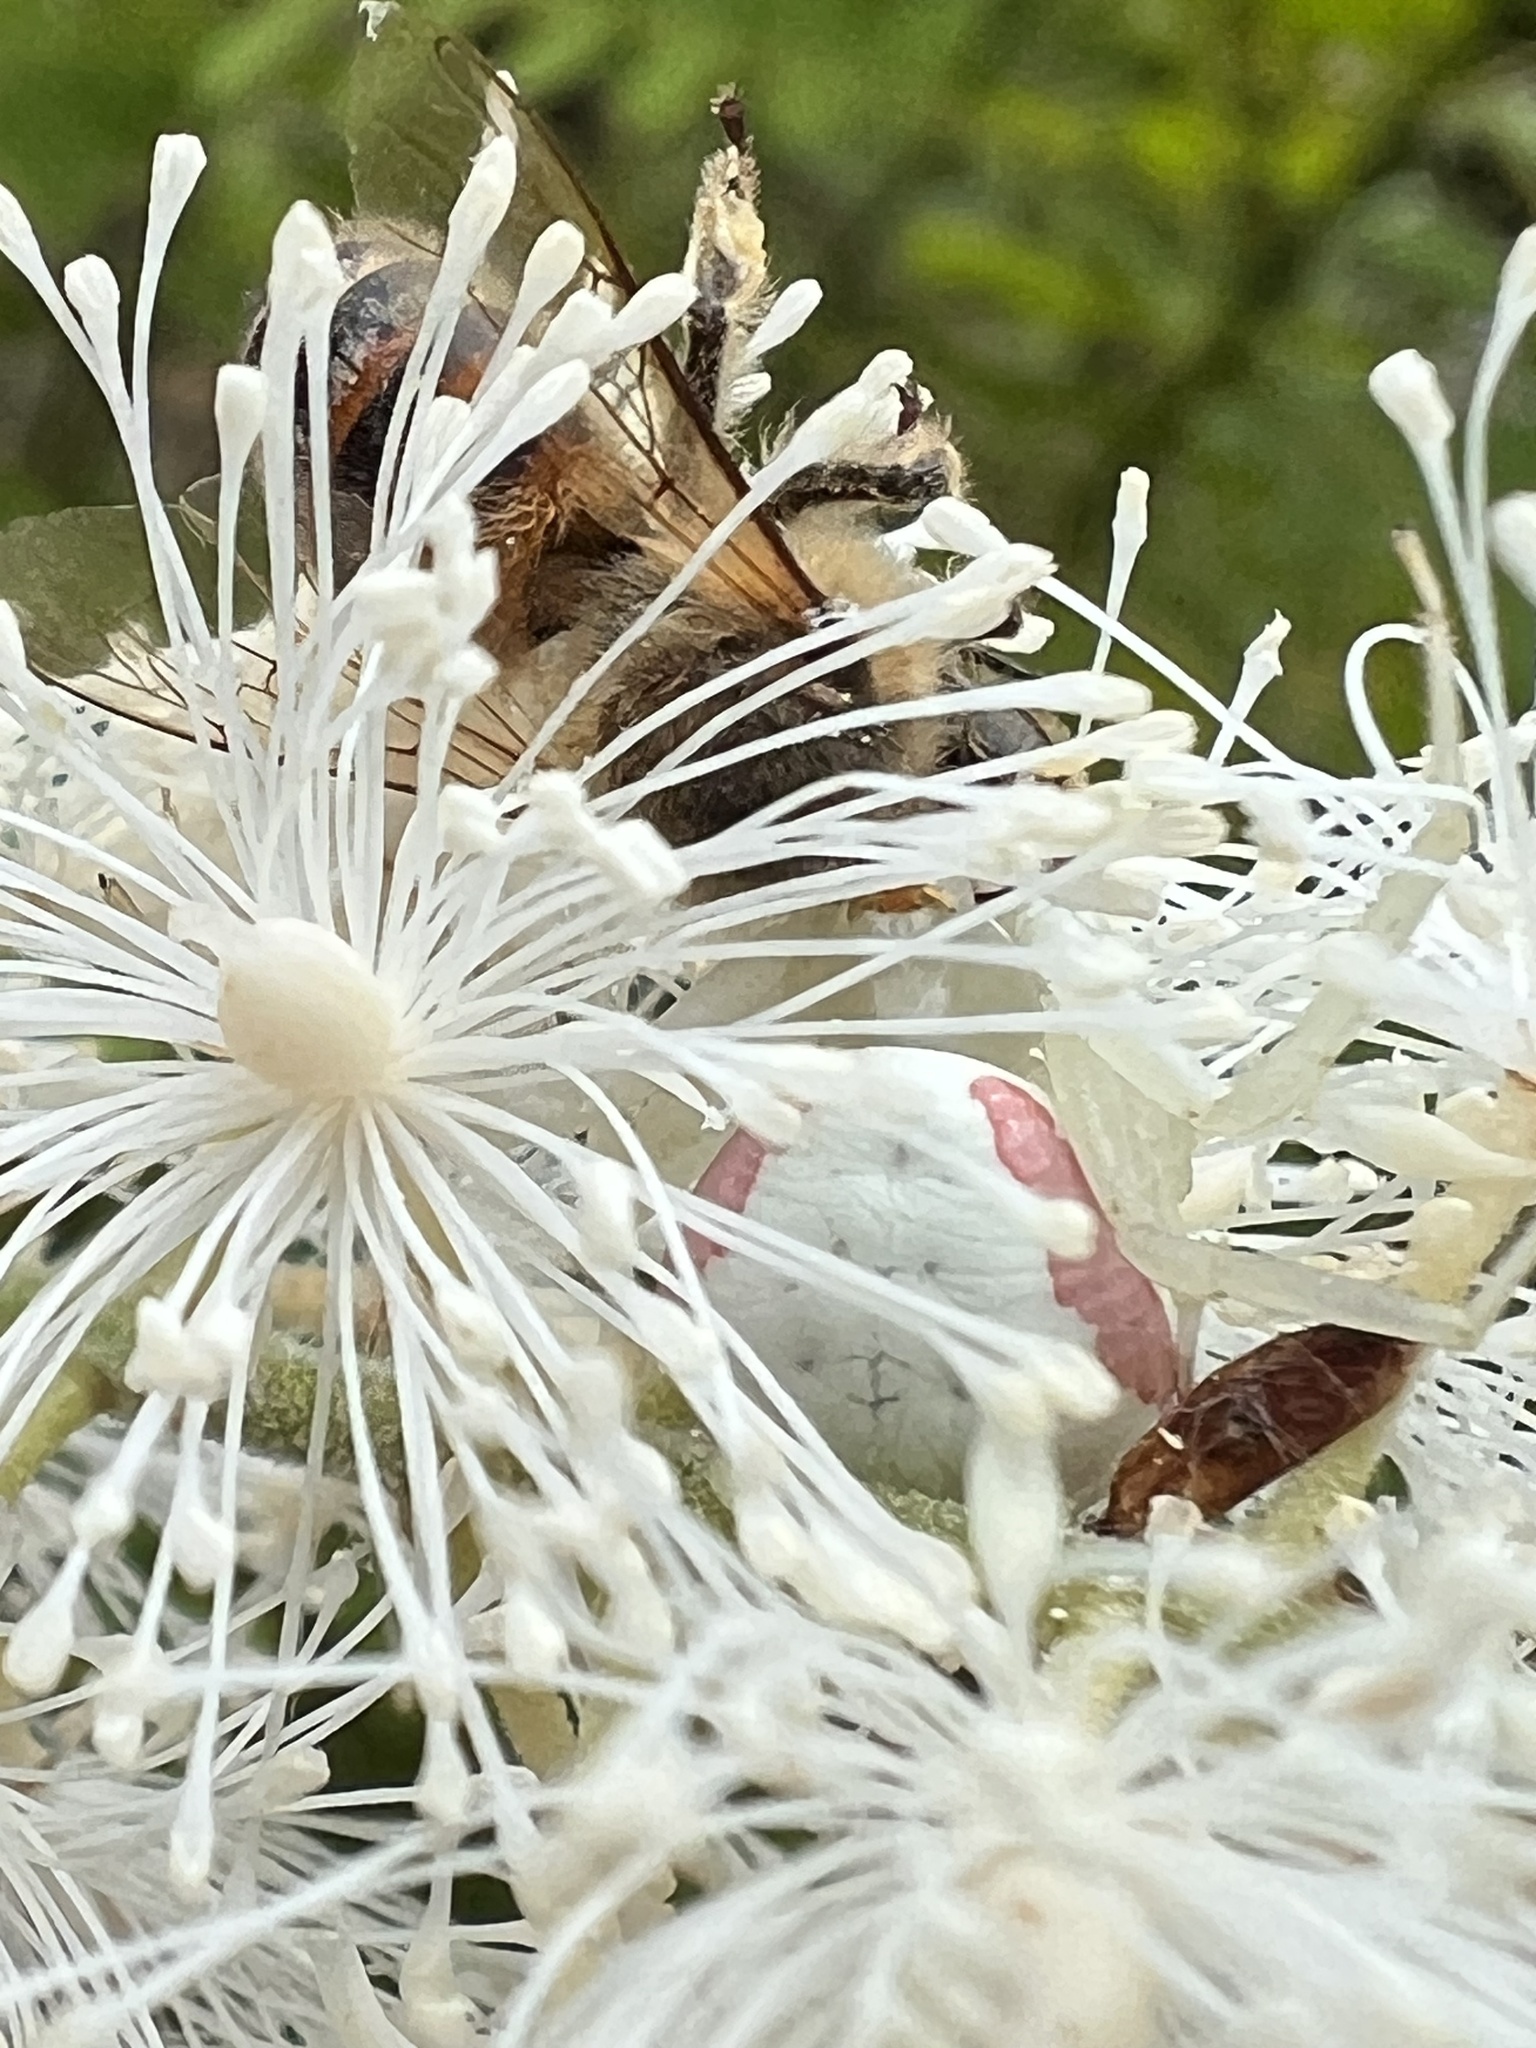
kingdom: Animalia
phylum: Arthropoda
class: Arachnida
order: Araneae
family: Thomisidae
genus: Misumena
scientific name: Misumena vatia
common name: Goldenrod crab spider
